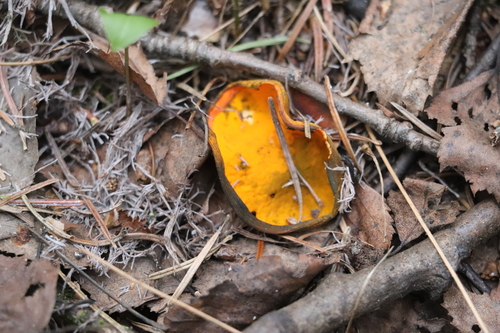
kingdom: Fungi
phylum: Ascomycota
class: Pezizomycetes
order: Pezizales
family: Caloscyphaceae
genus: Caloscypha
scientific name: Caloscypha fulgens
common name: Golden cup
